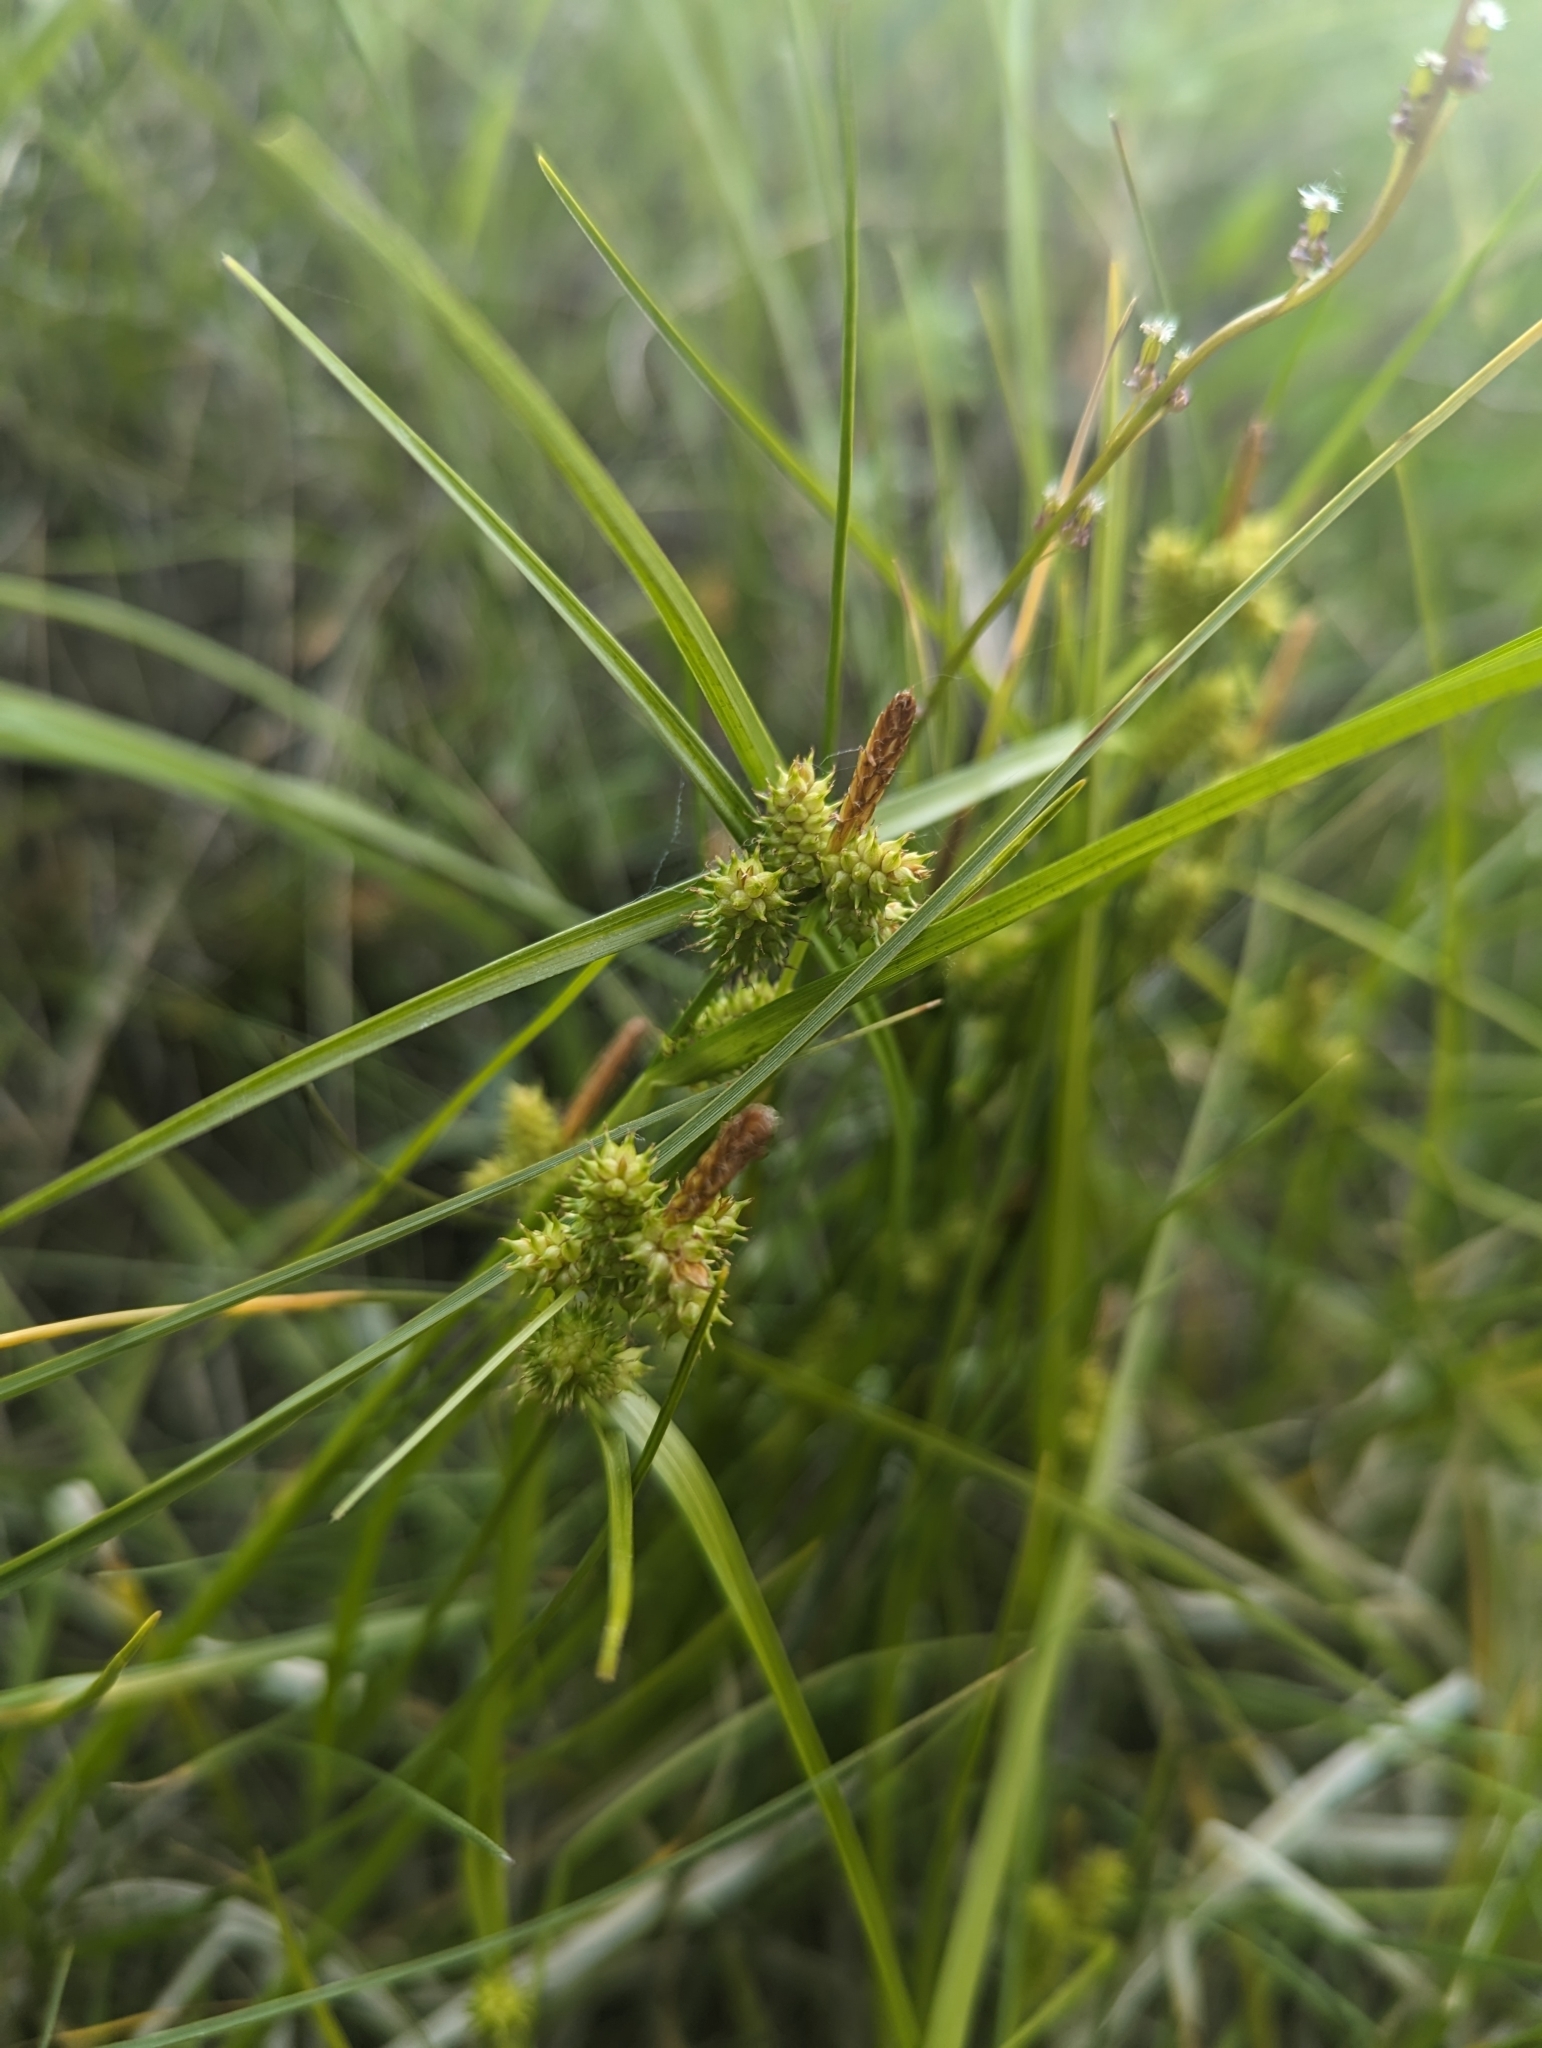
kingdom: Plantae
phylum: Tracheophyta
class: Liliopsida
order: Poales
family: Cyperaceae
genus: Carex
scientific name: Carex
